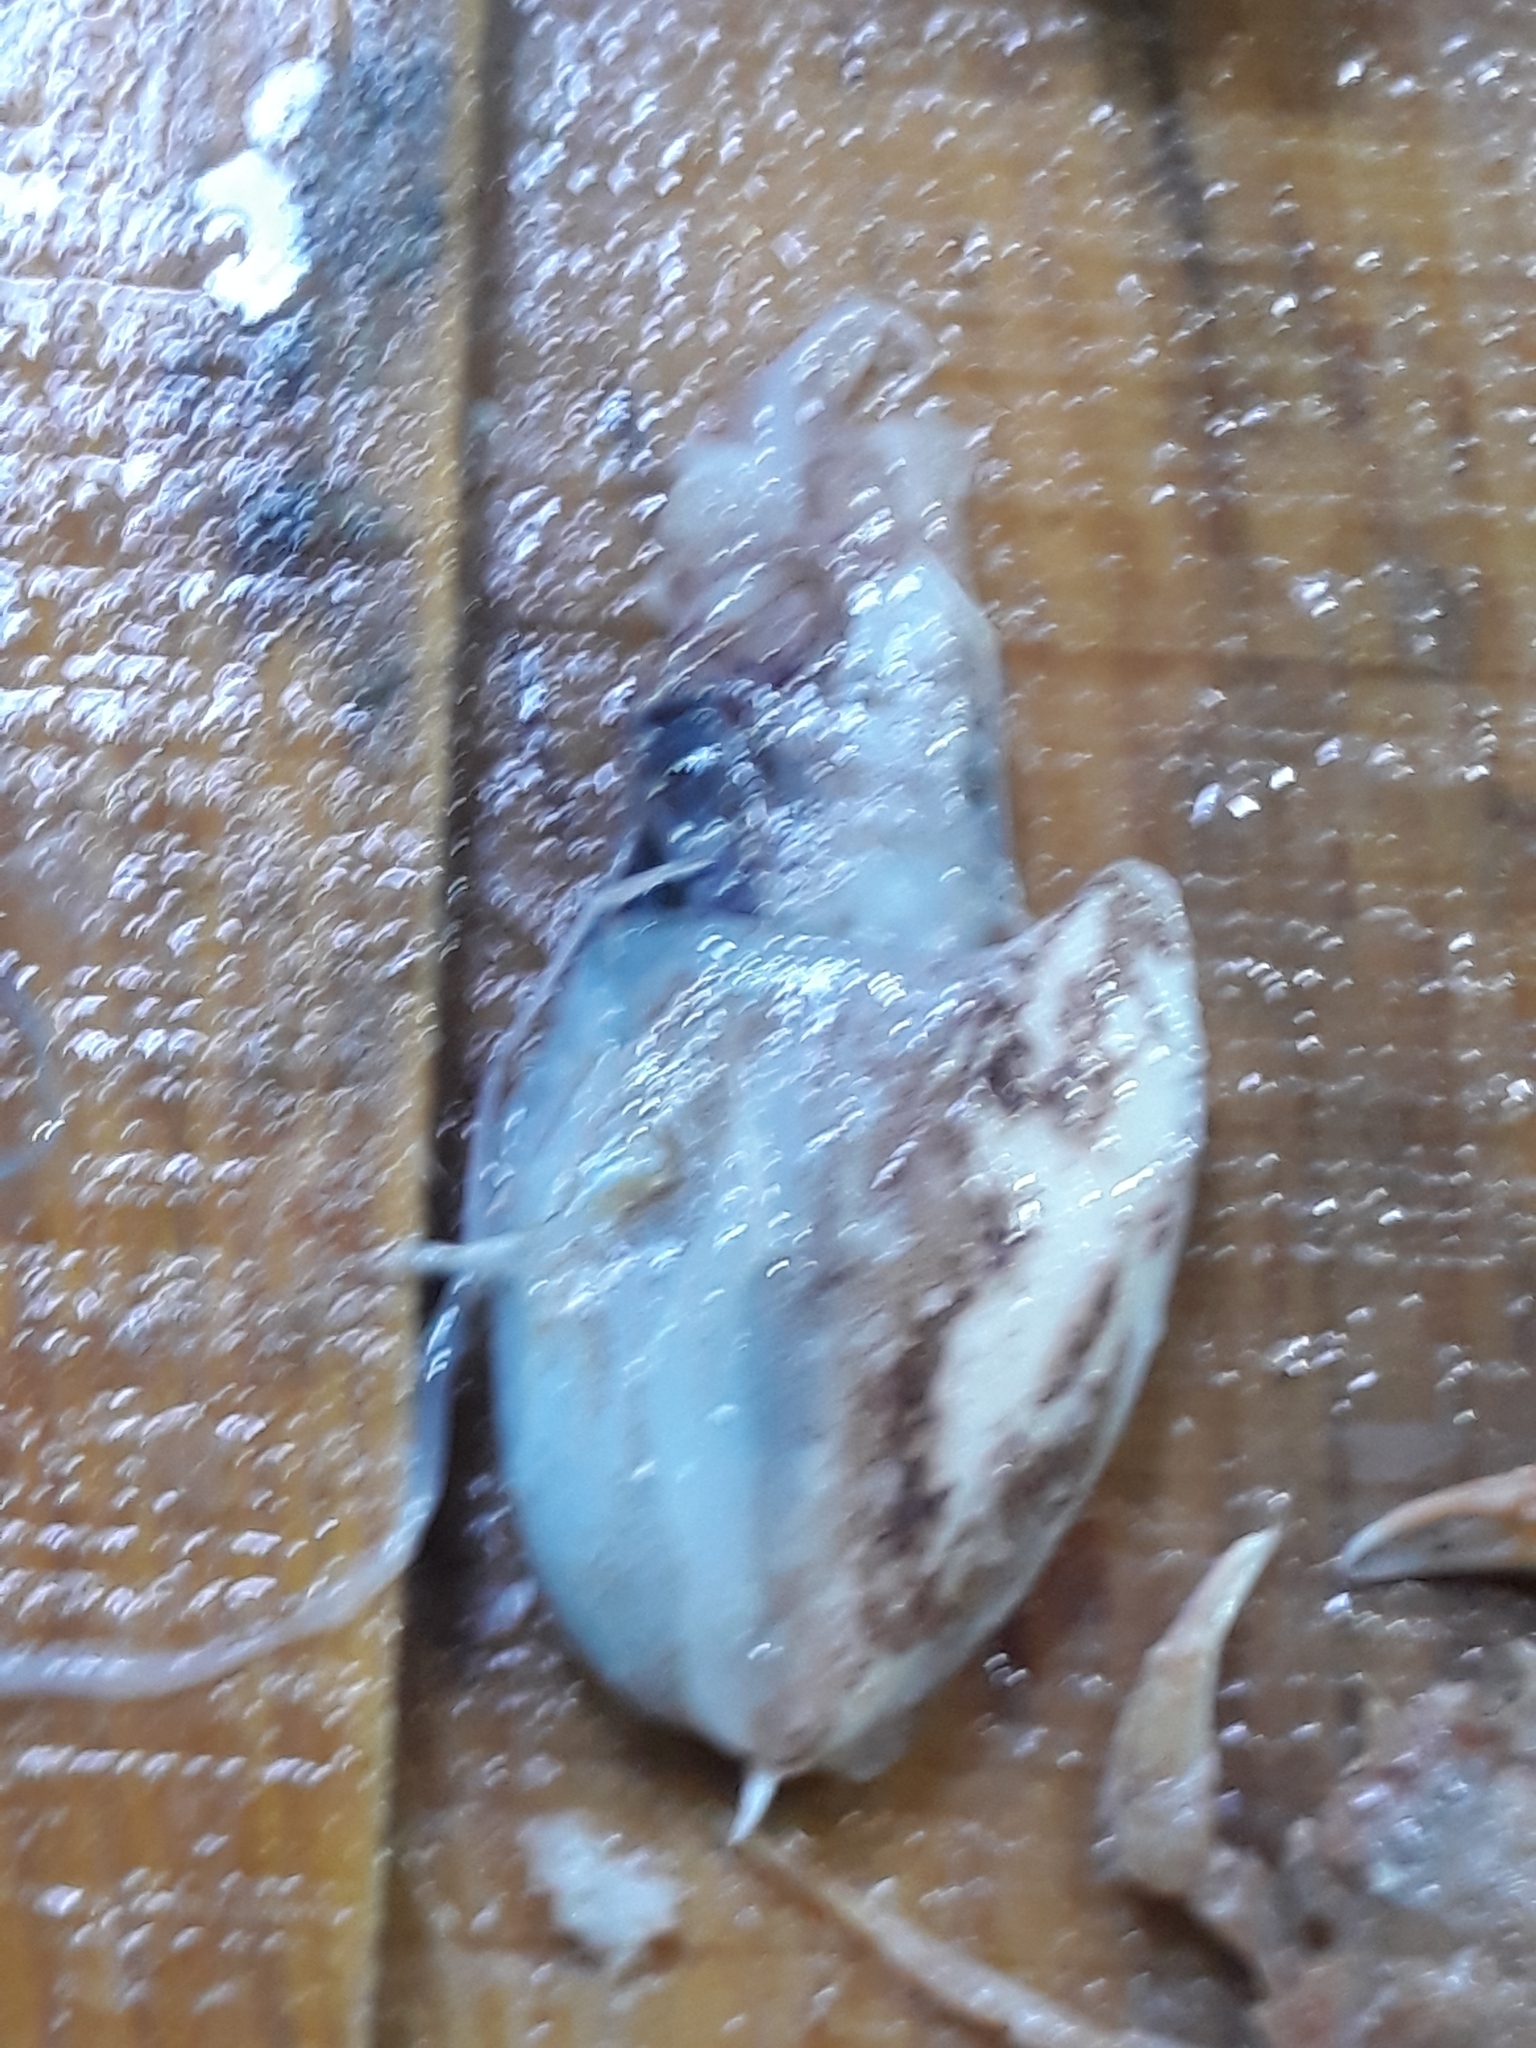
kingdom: Animalia
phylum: Mollusca
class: Cephalopoda
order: Sepiida
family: Sepiidae
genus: Rhombosepion
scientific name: Rhombosepion orbignyanum
